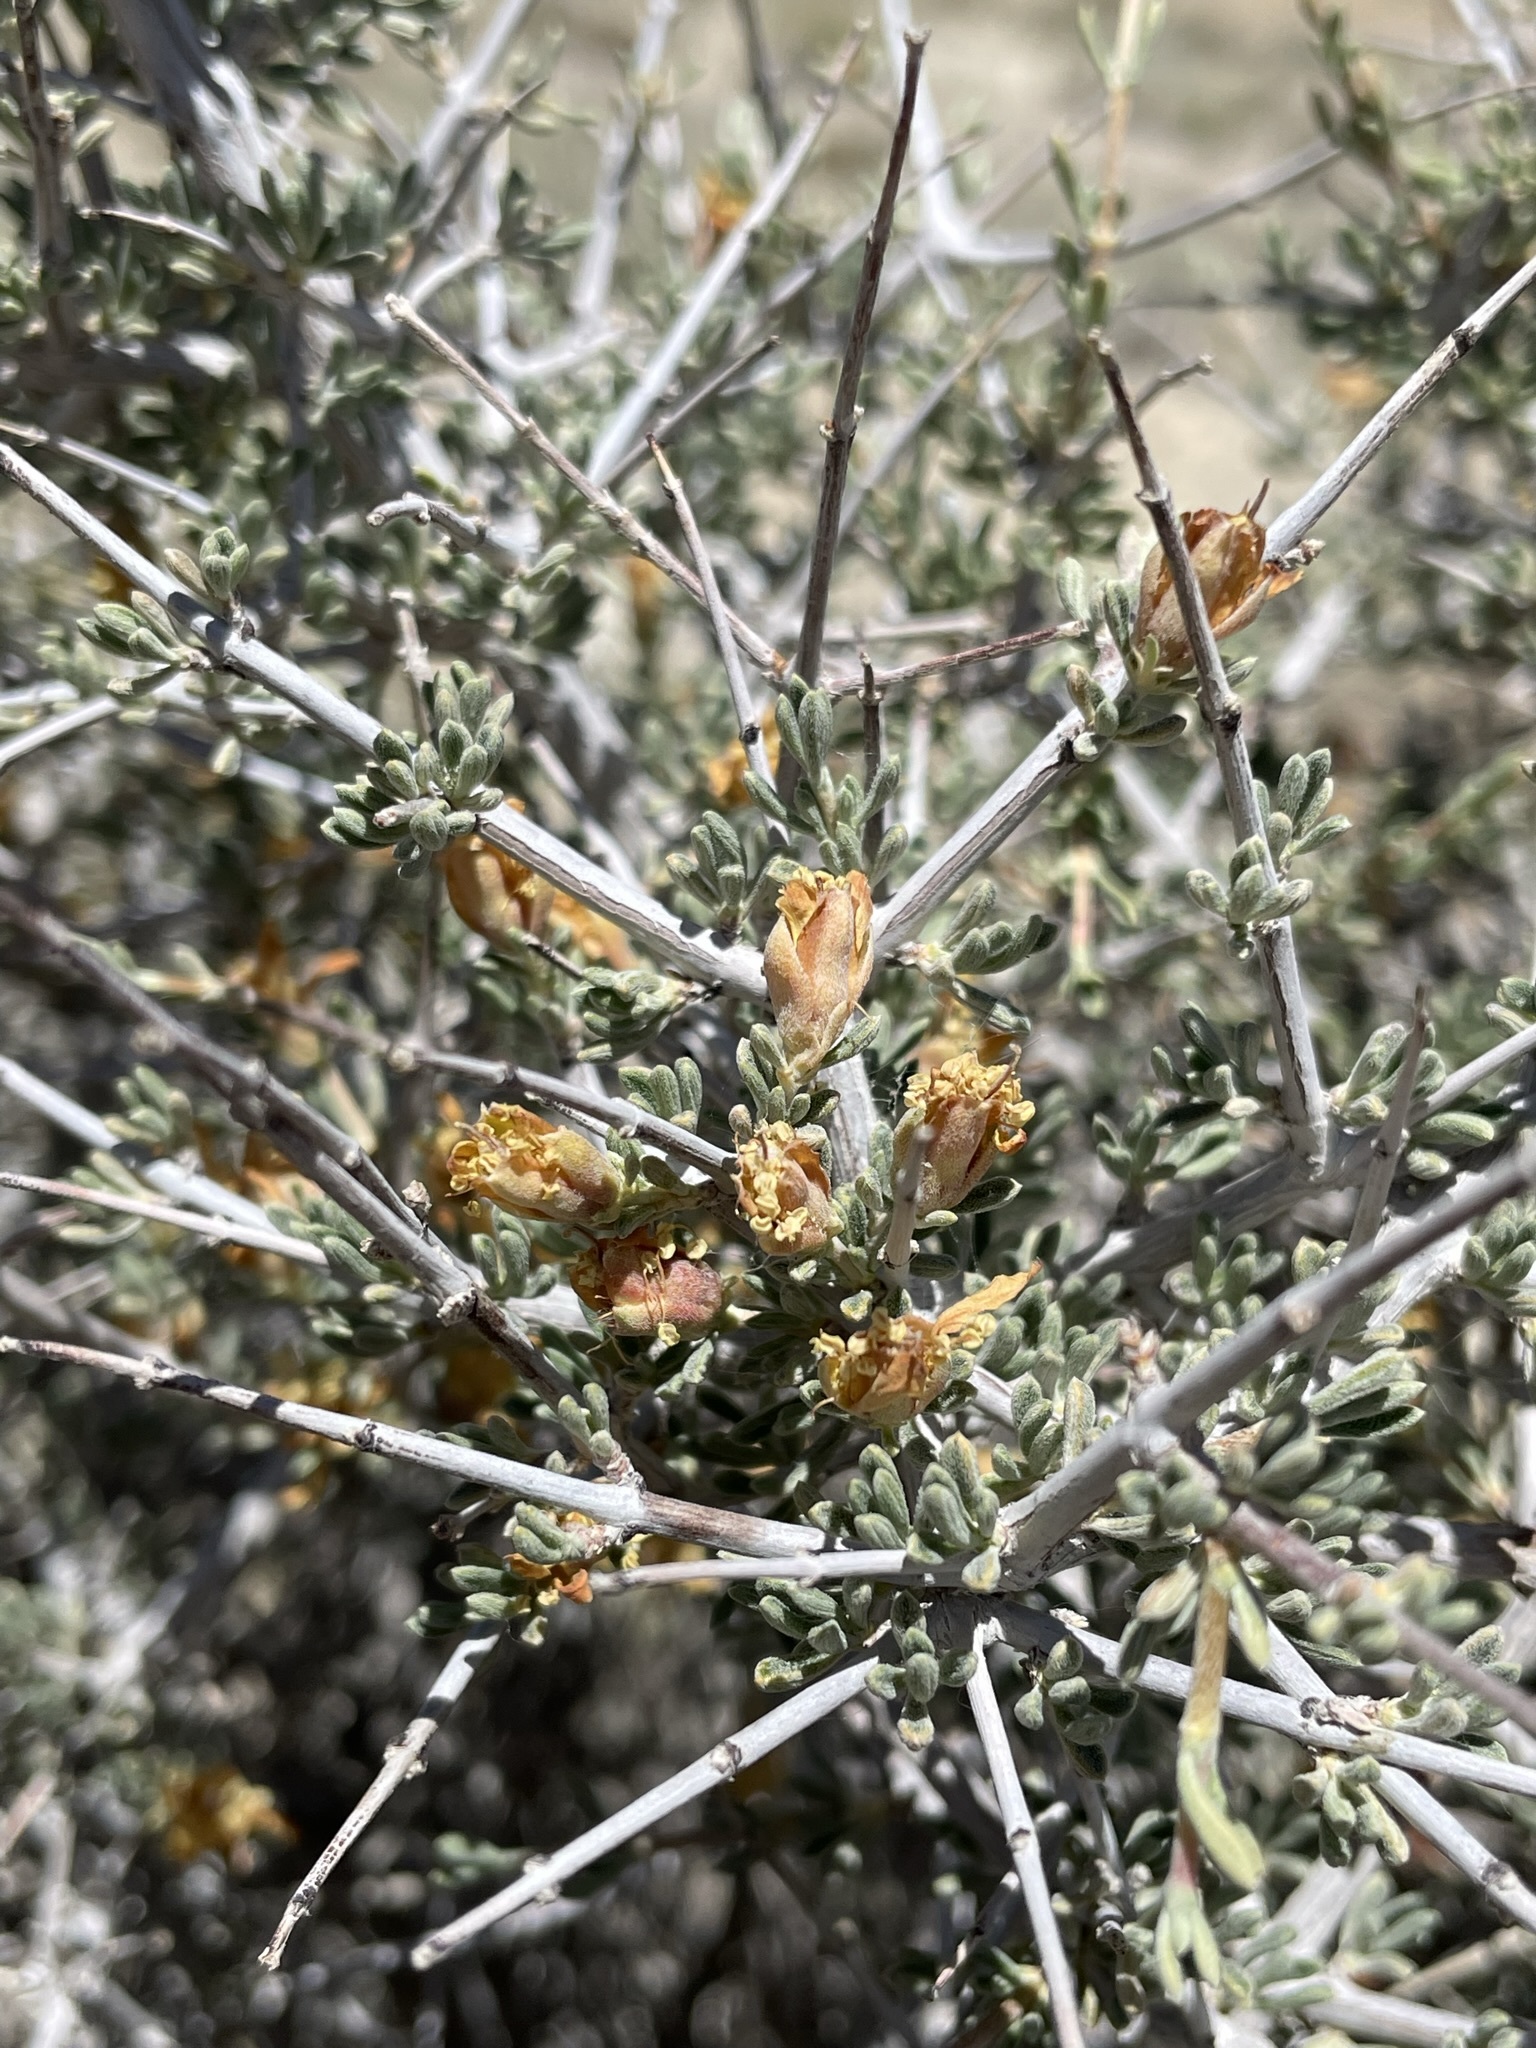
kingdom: Plantae
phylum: Tracheophyta
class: Magnoliopsida
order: Rosales
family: Rosaceae
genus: Coleogyne
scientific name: Coleogyne ramosissima
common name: Blackbrush
